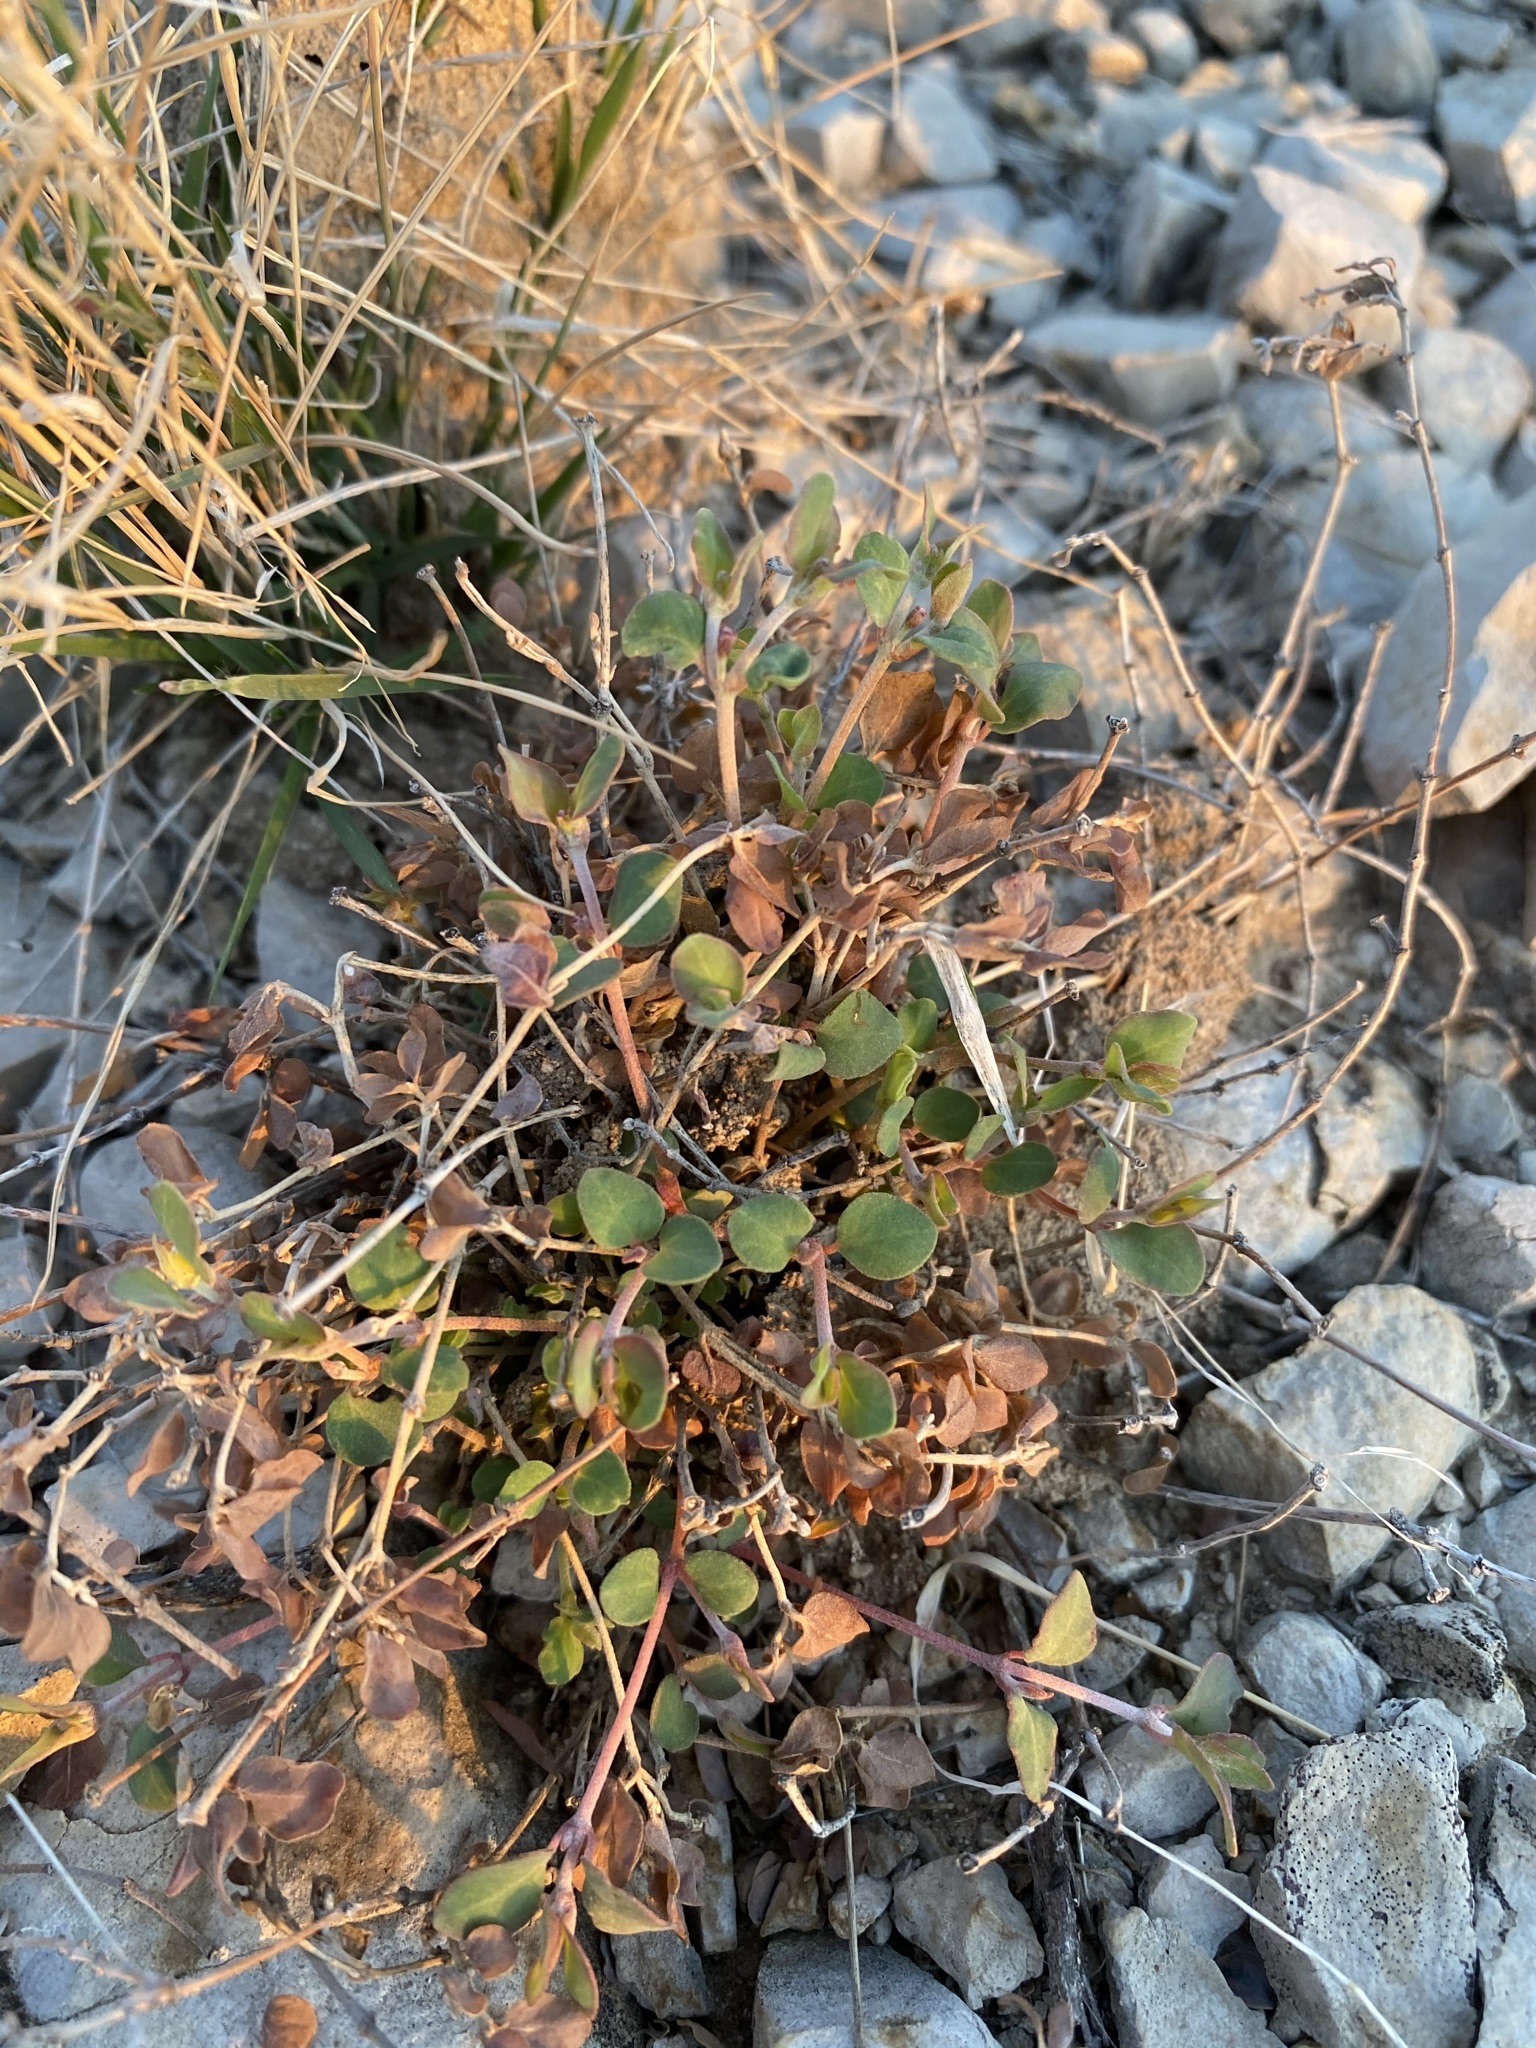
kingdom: Plantae
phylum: Tracheophyta
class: Magnoliopsida
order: Malpighiales
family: Euphorbiaceae
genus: Euphorbia
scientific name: Euphorbia cinerascens
